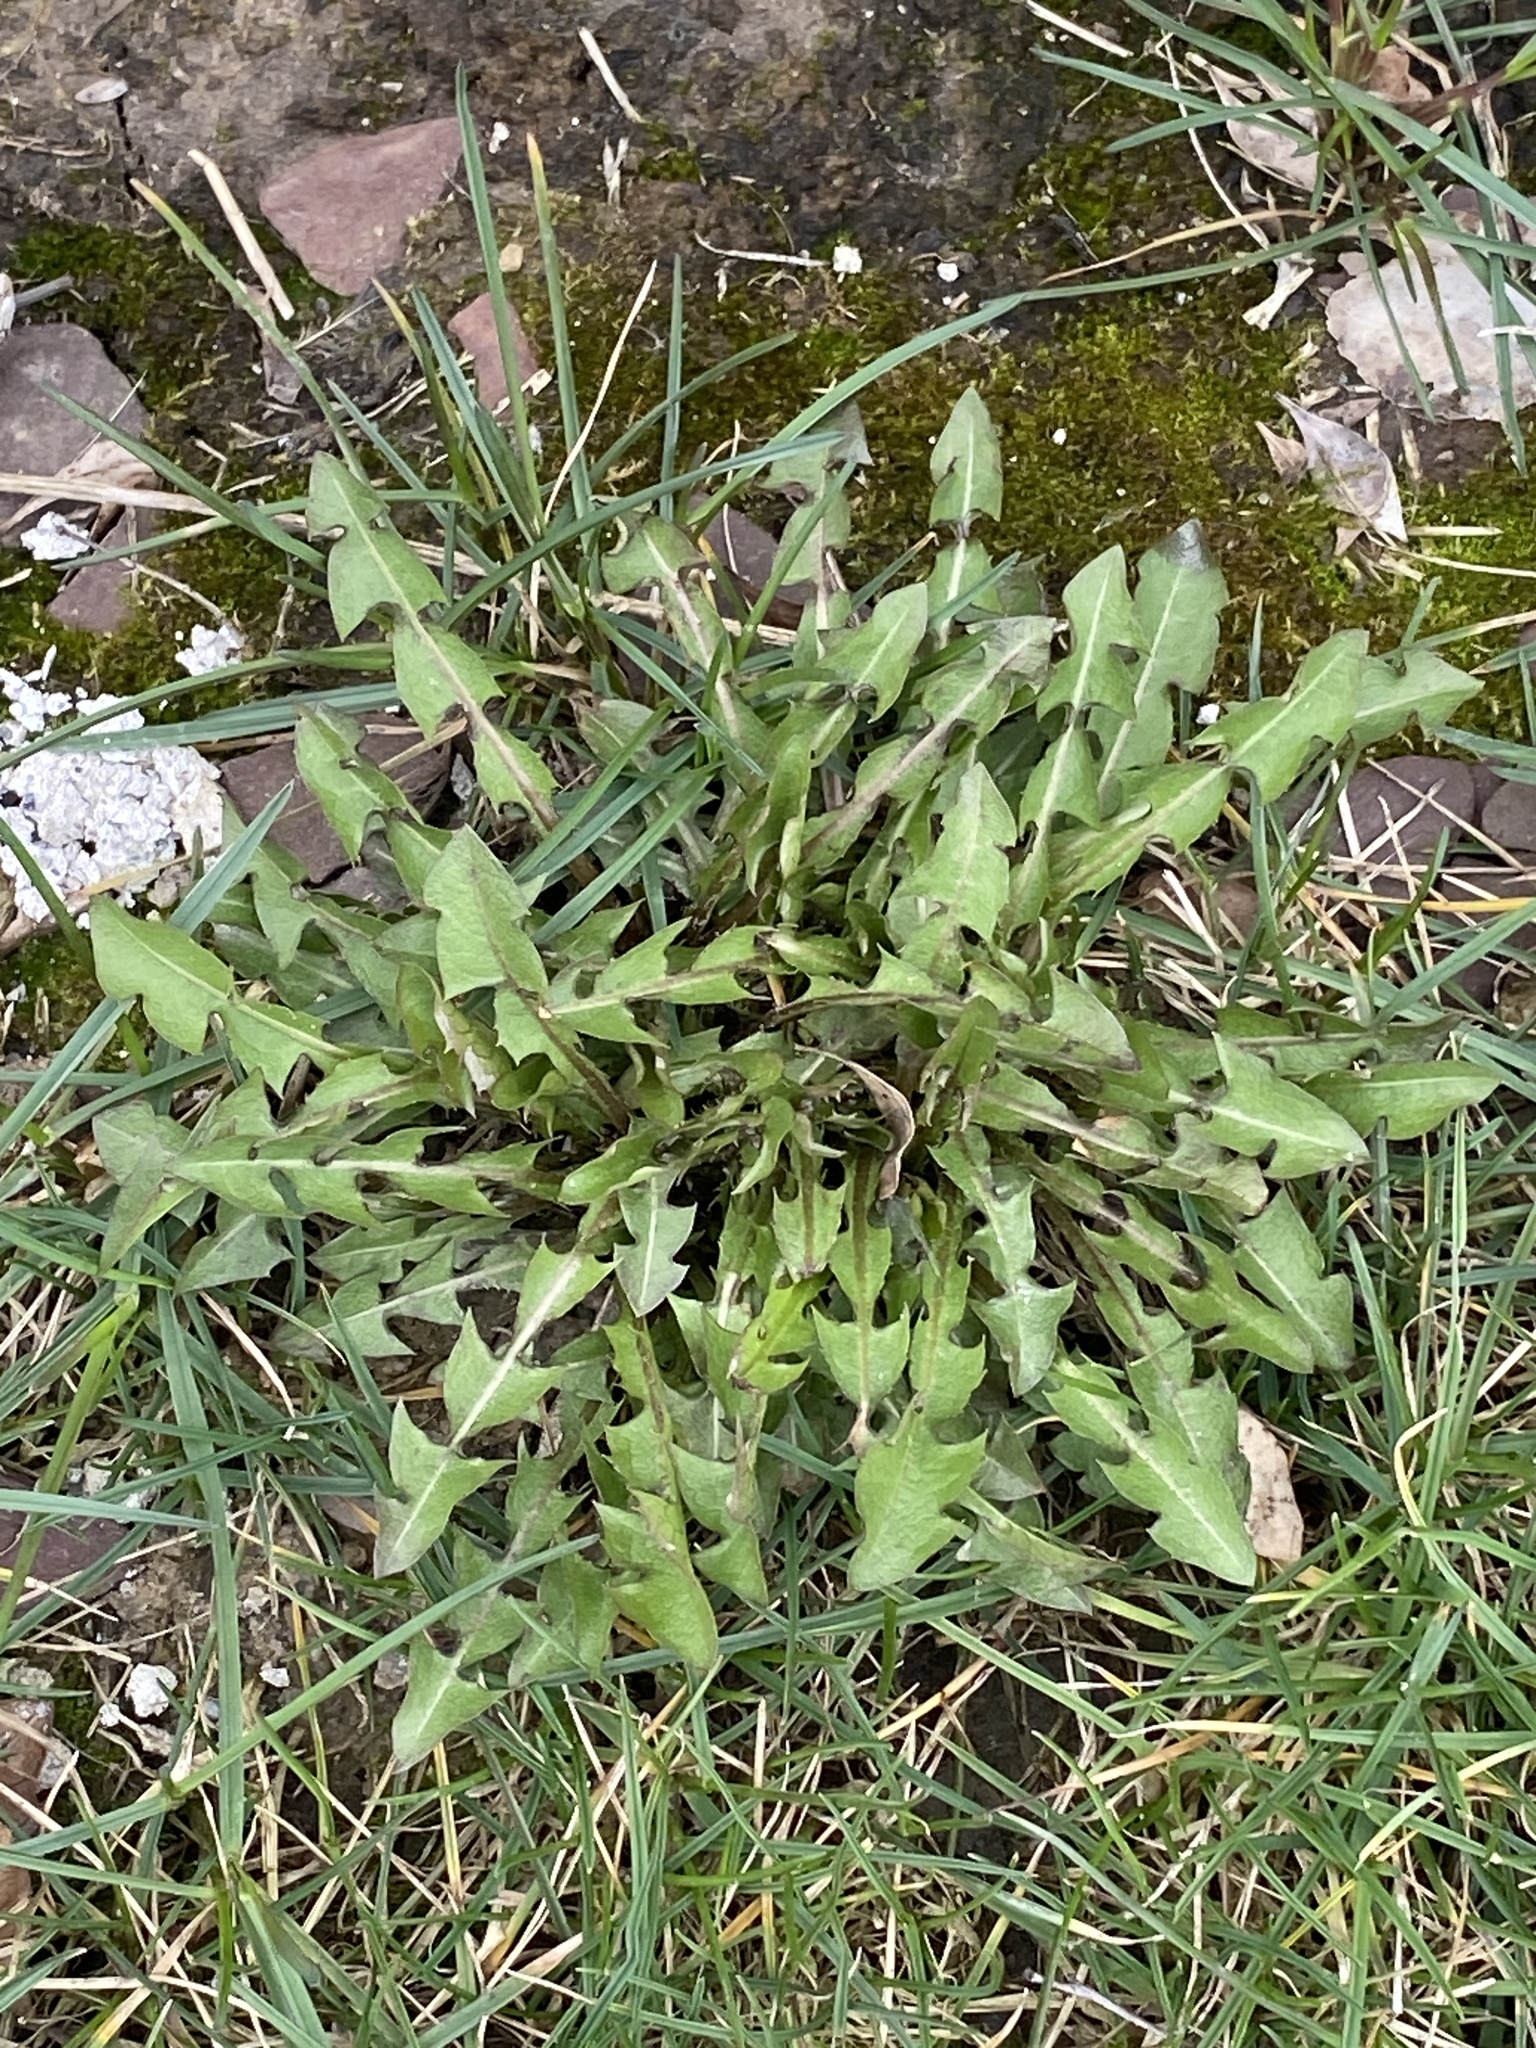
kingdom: Plantae
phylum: Tracheophyta
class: Magnoliopsida
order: Asterales
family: Asteraceae
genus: Taraxacum
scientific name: Taraxacum
